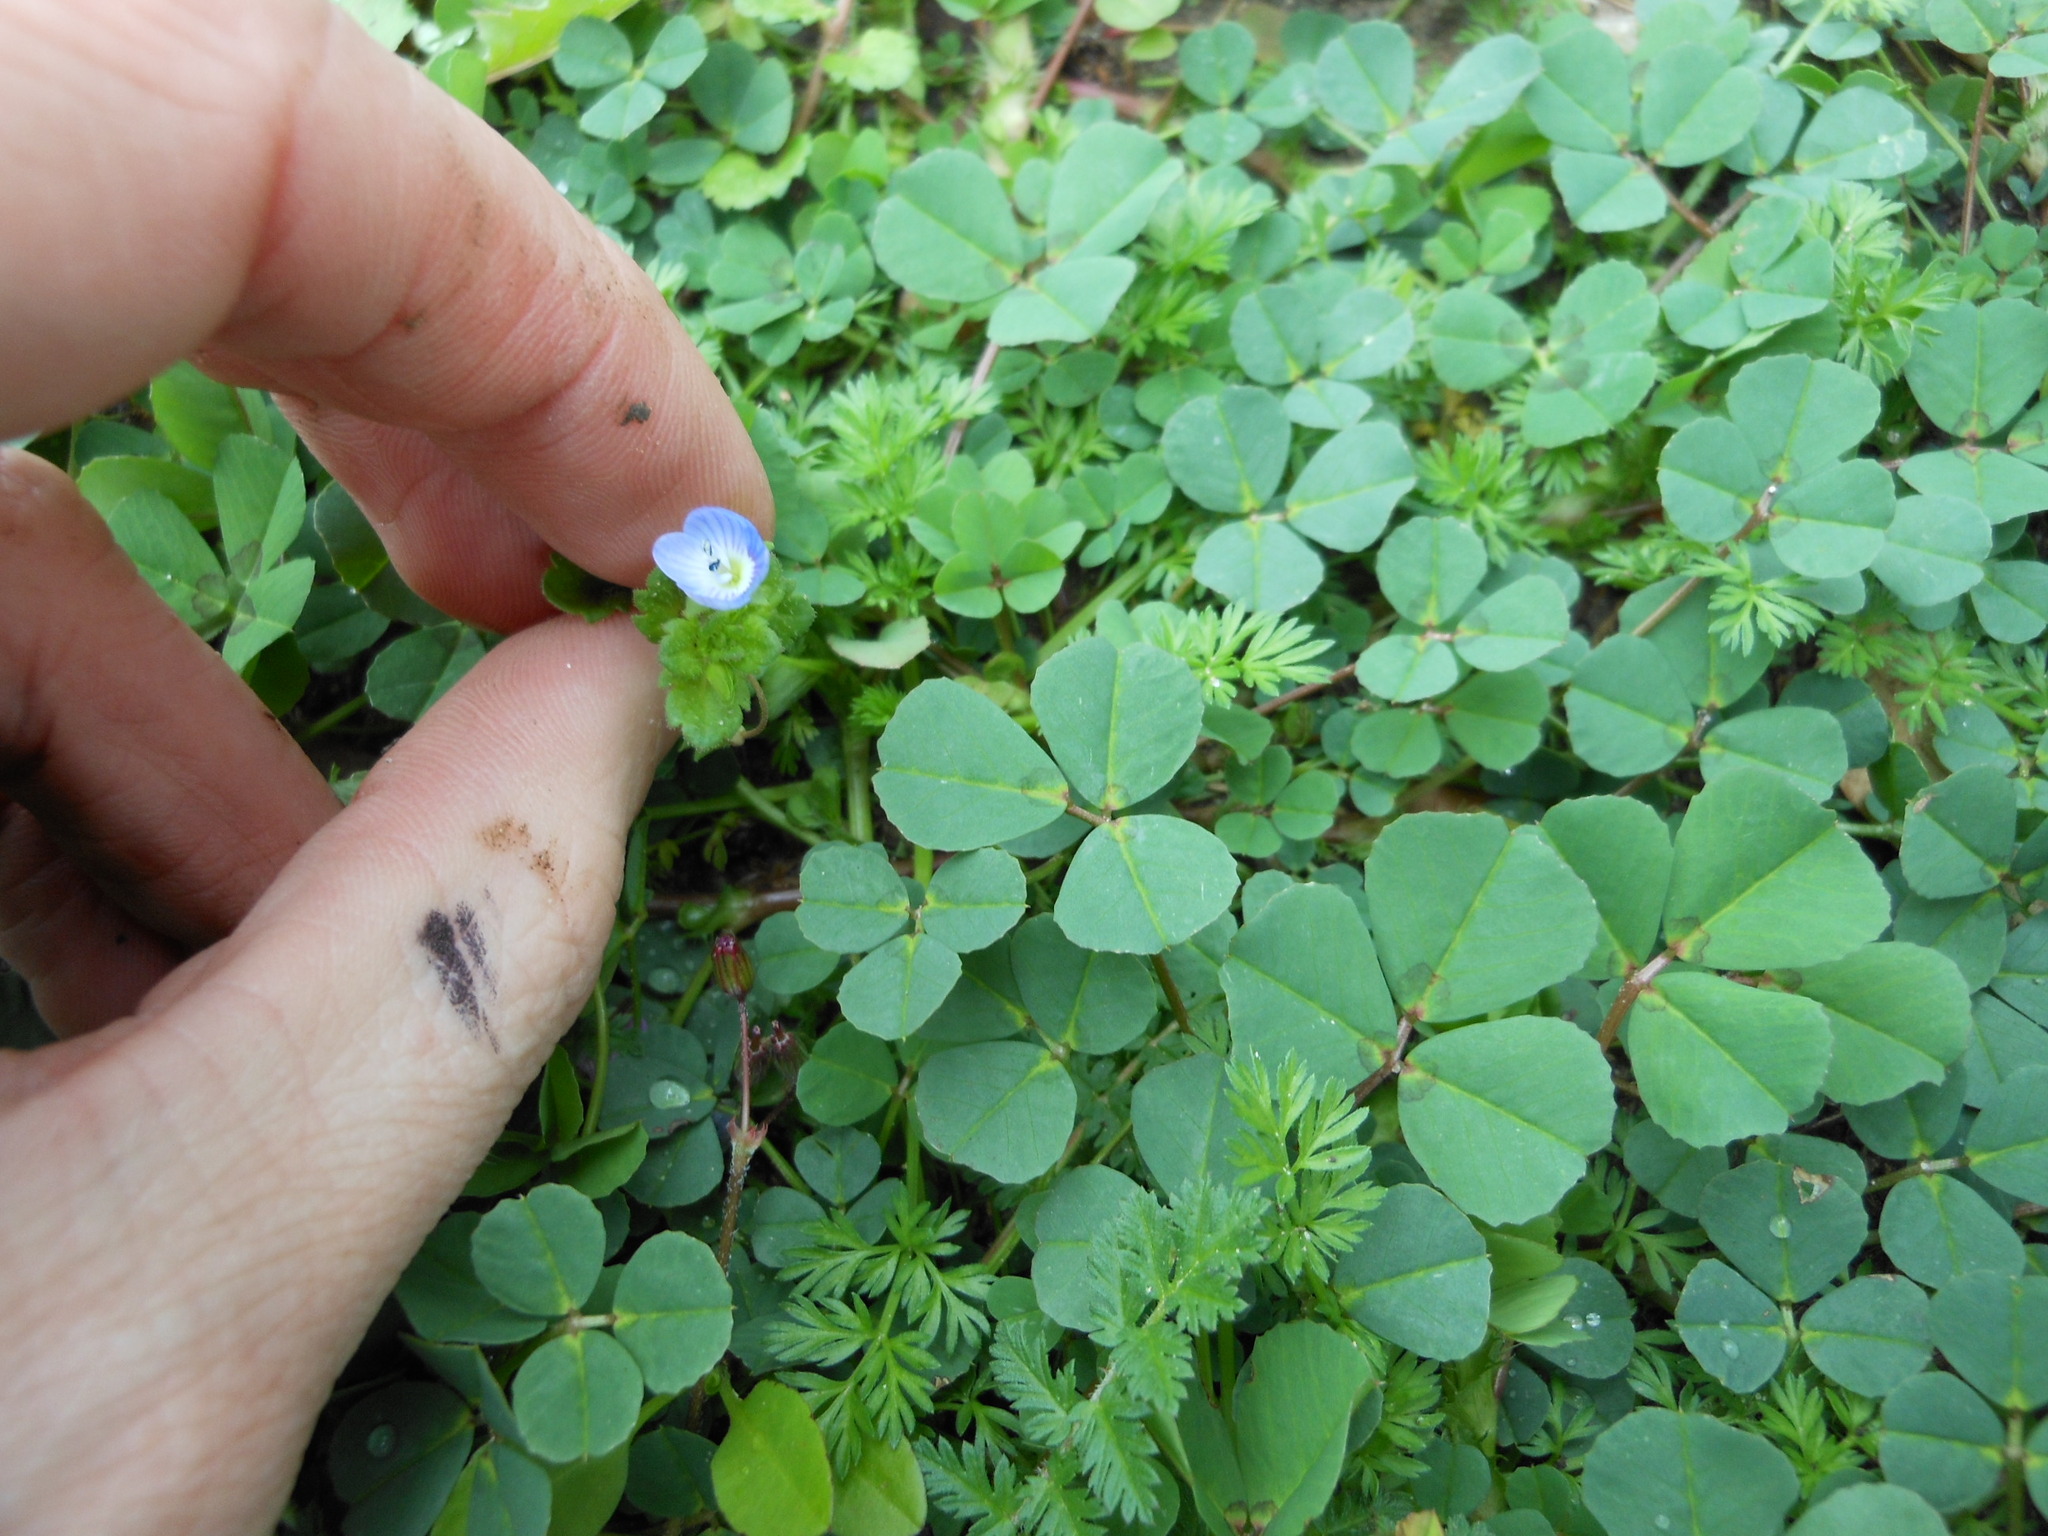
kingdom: Plantae
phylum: Tracheophyta
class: Magnoliopsida
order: Lamiales
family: Plantaginaceae
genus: Veronica
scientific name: Veronica persica
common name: Common field-speedwell
